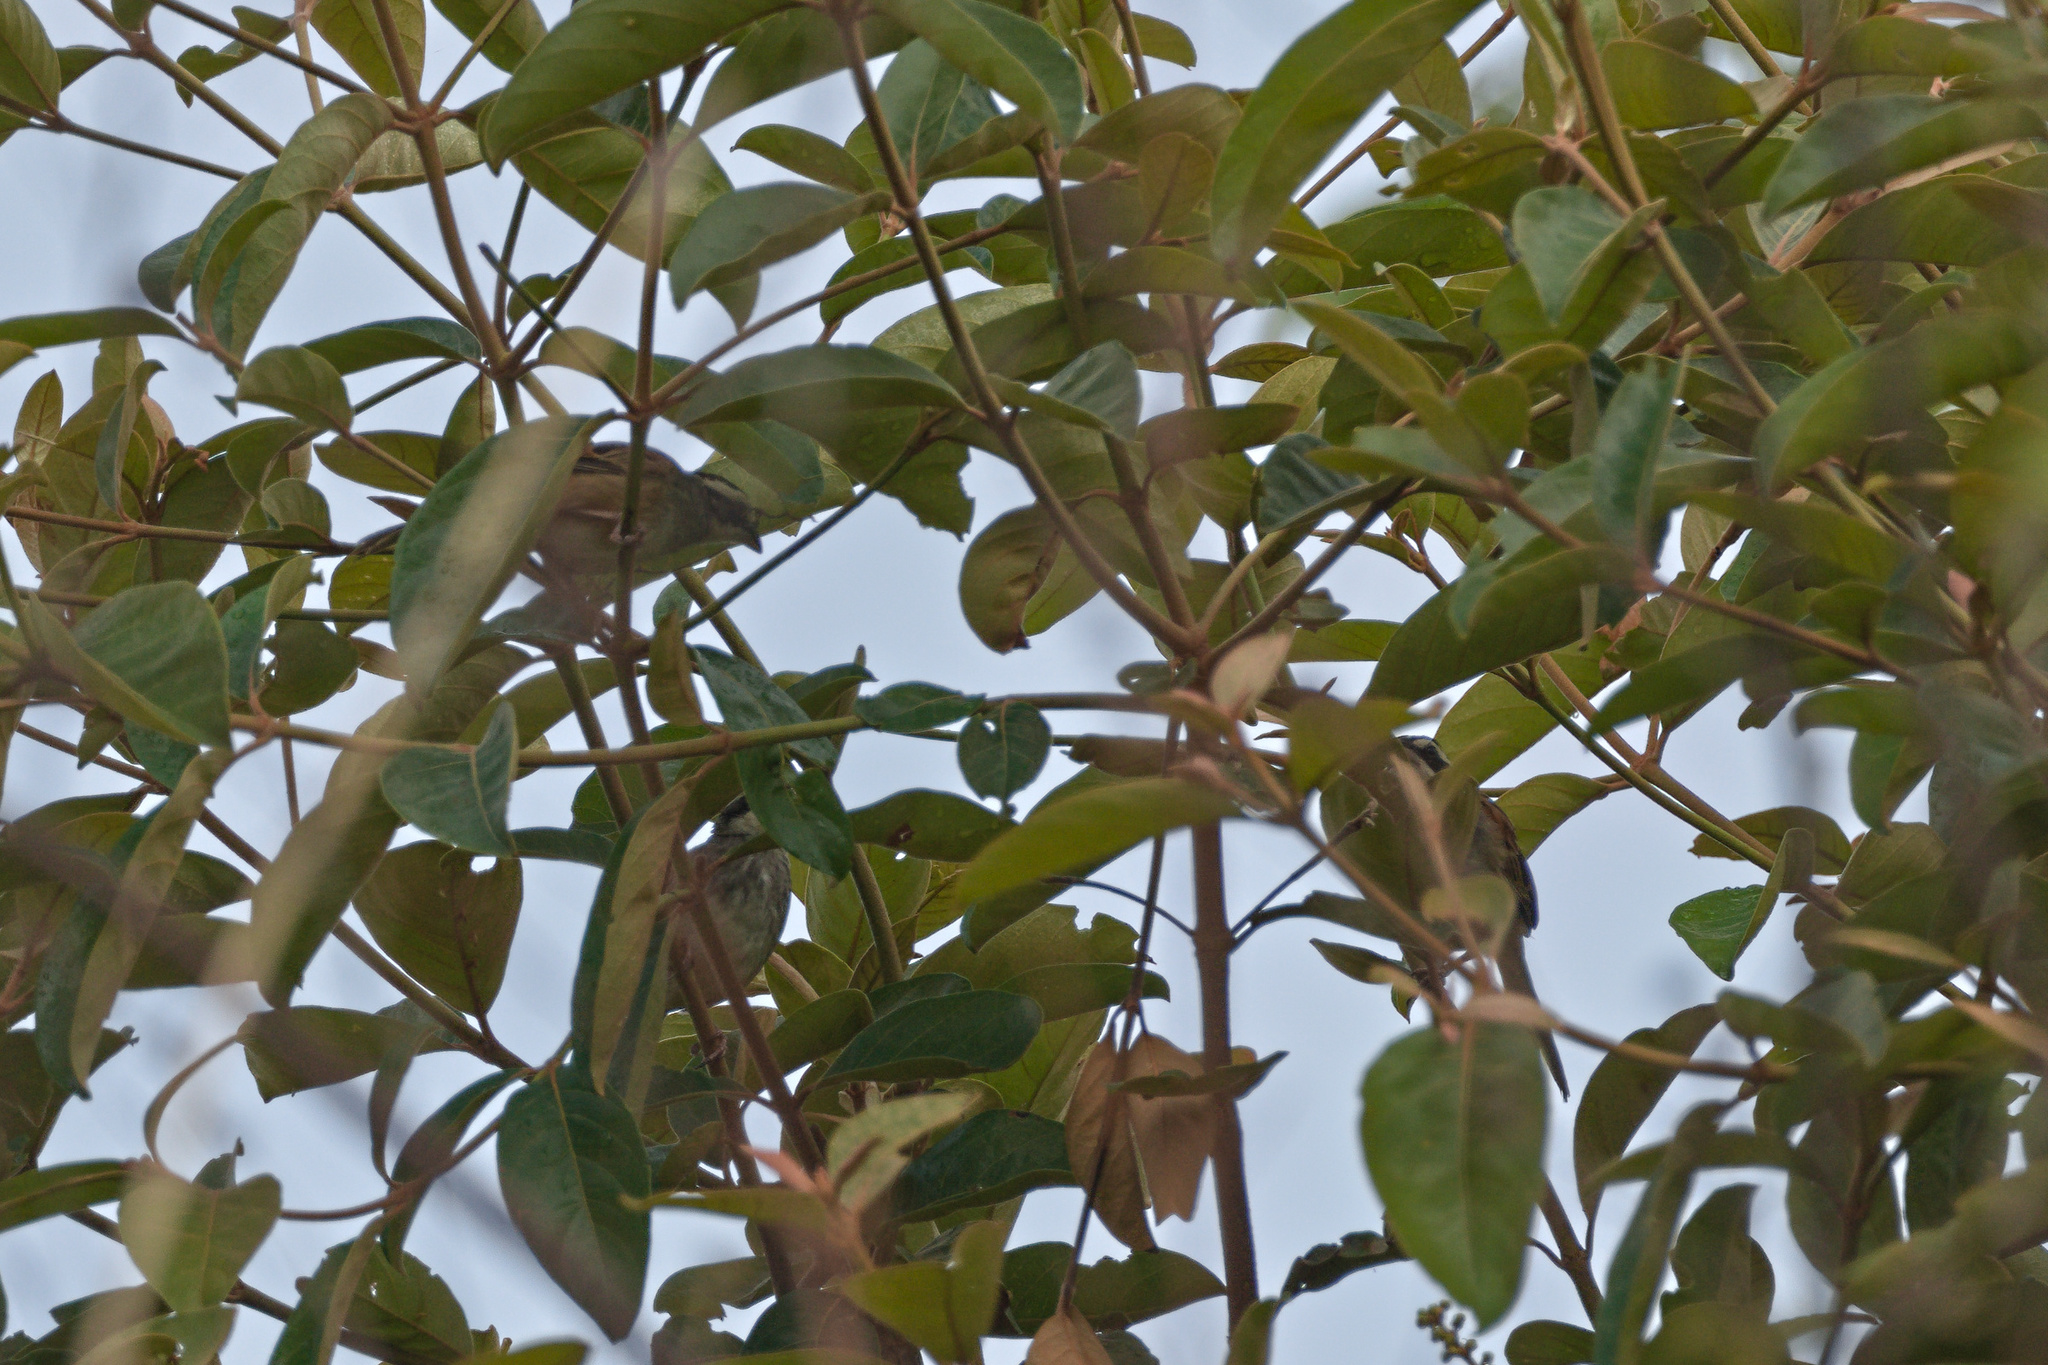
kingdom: Animalia
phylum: Chordata
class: Aves
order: Passeriformes
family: Passerellidae
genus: Peucaea
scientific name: Peucaea ruficauda
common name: Stripe-headed sparrow
